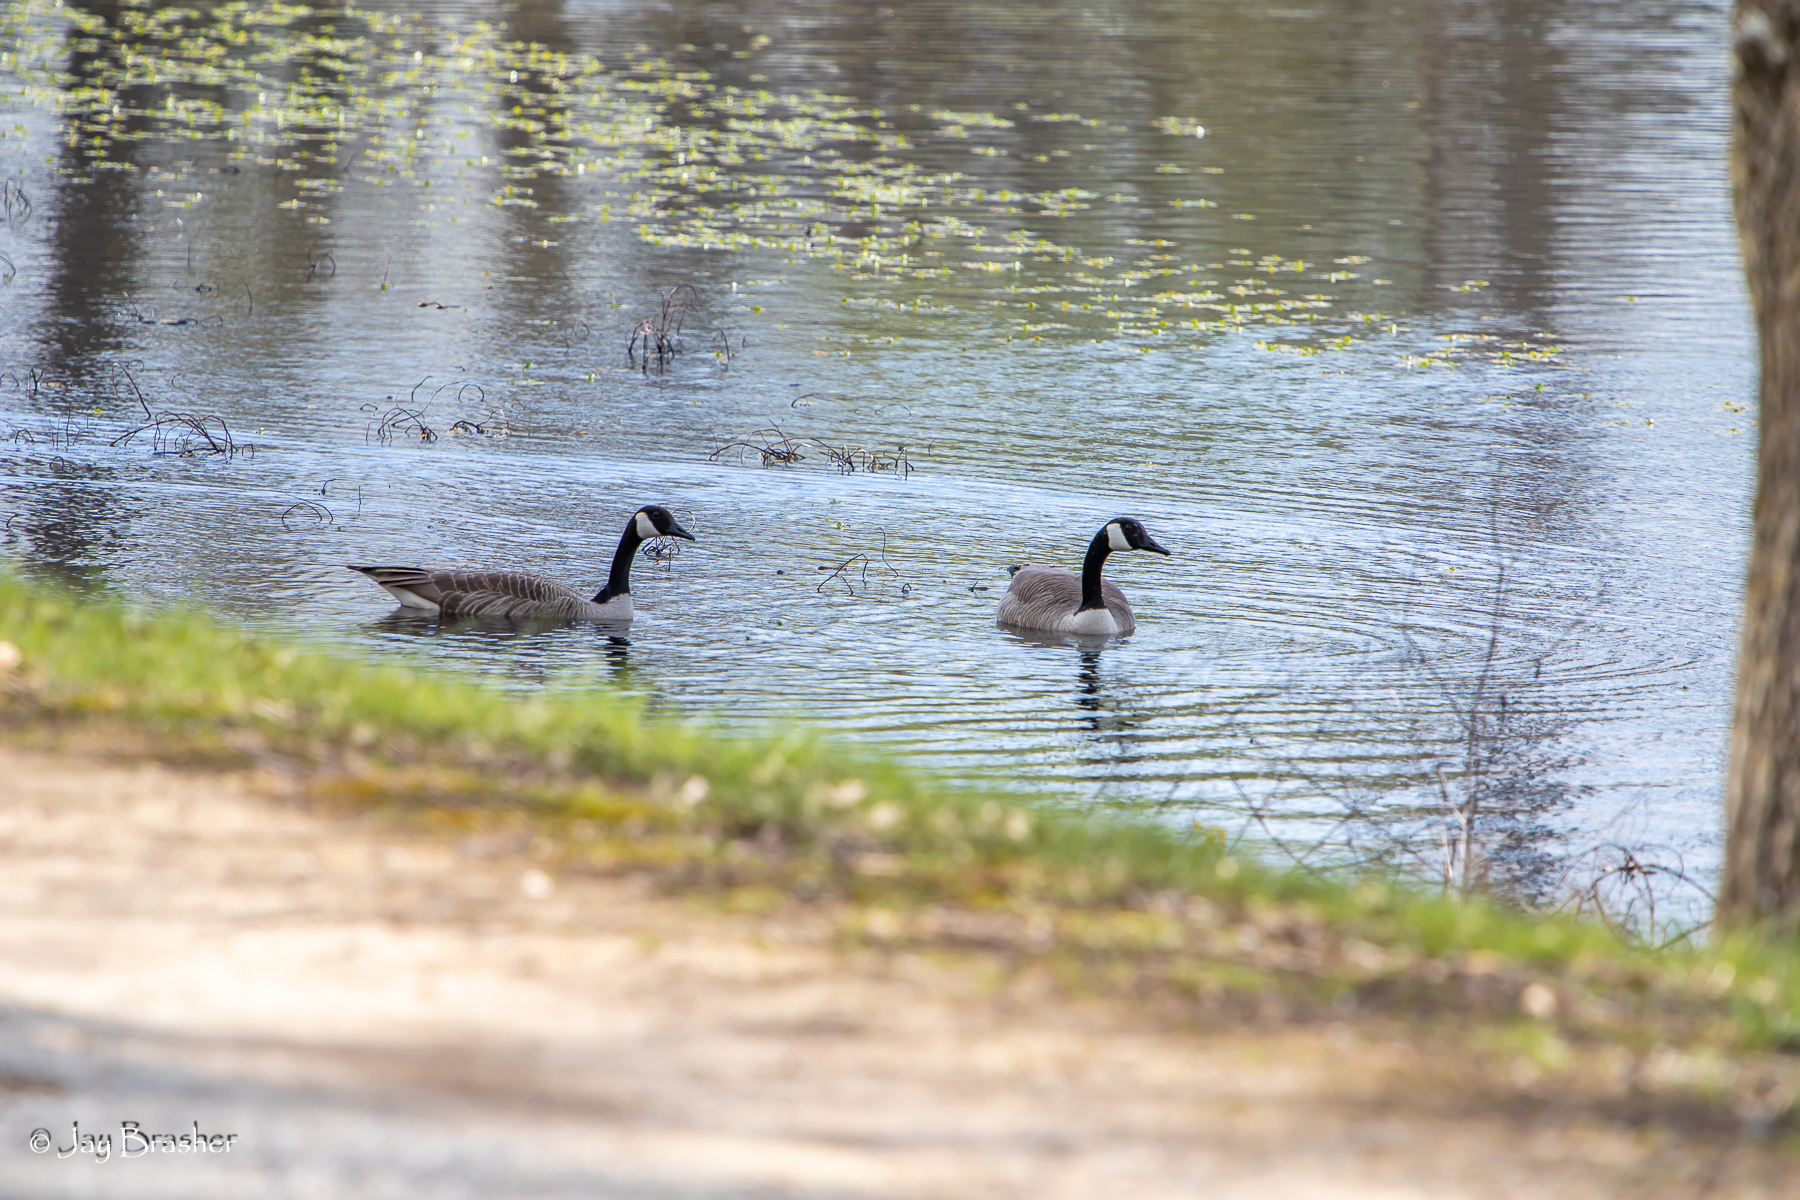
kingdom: Animalia
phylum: Chordata
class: Aves
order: Anseriformes
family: Anatidae
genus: Branta
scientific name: Branta canadensis
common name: Canada goose
